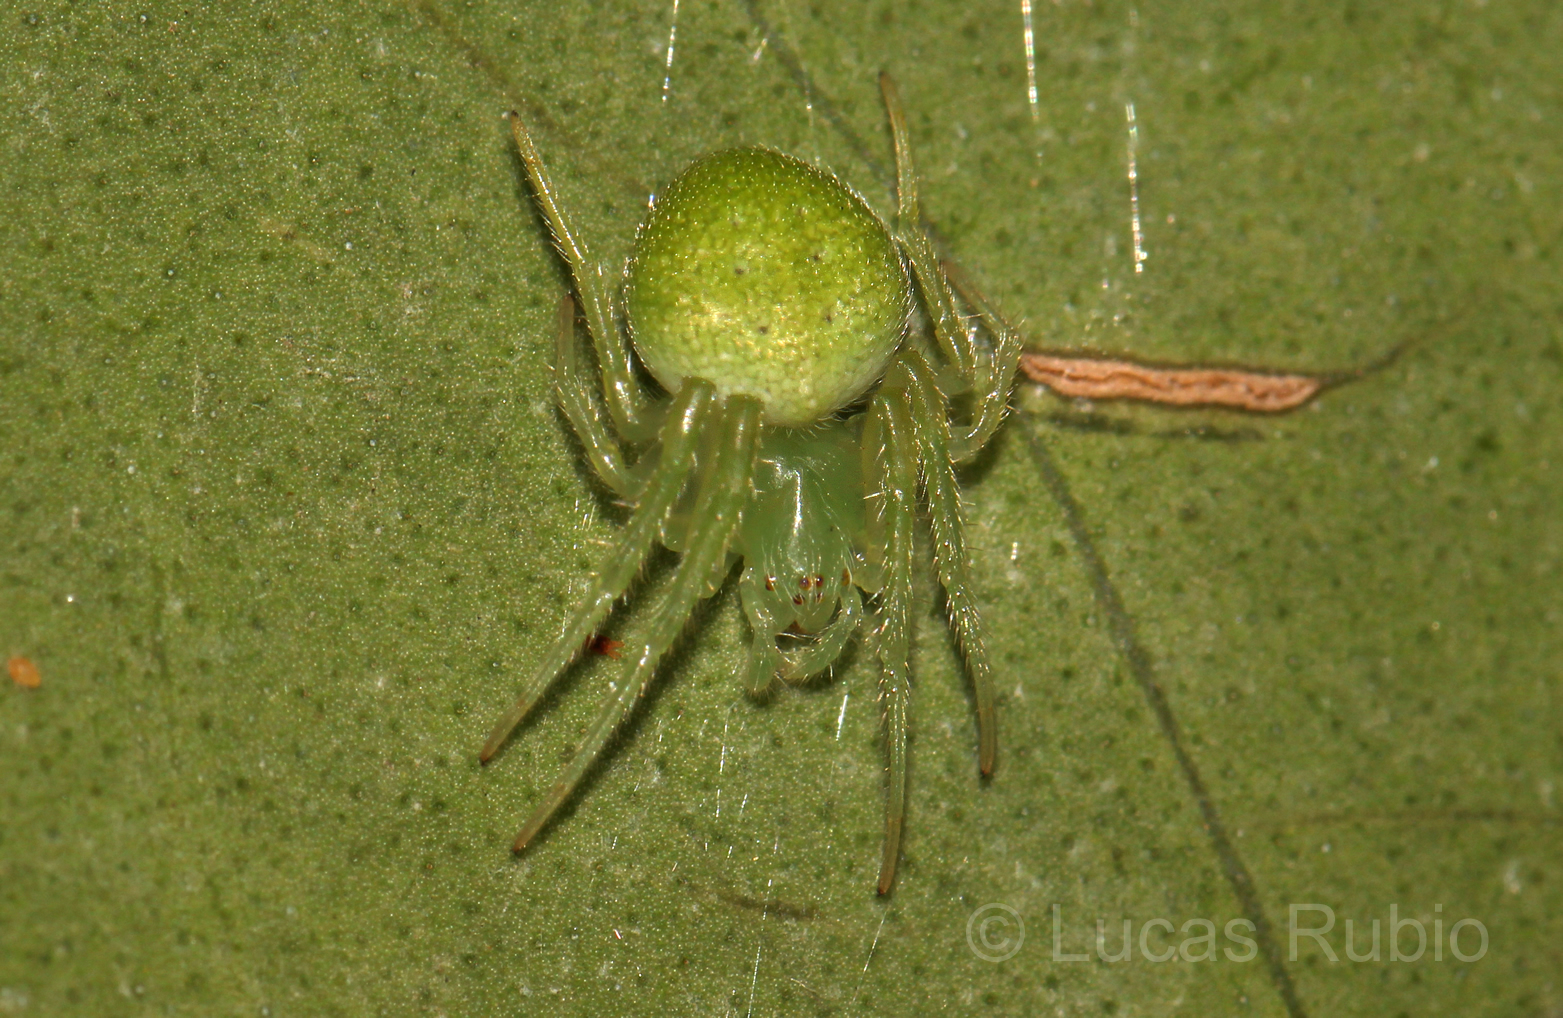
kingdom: Animalia
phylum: Arthropoda
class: Arachnida
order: Araneae
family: Araneidae
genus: Araneus
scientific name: Araneus uniformis
